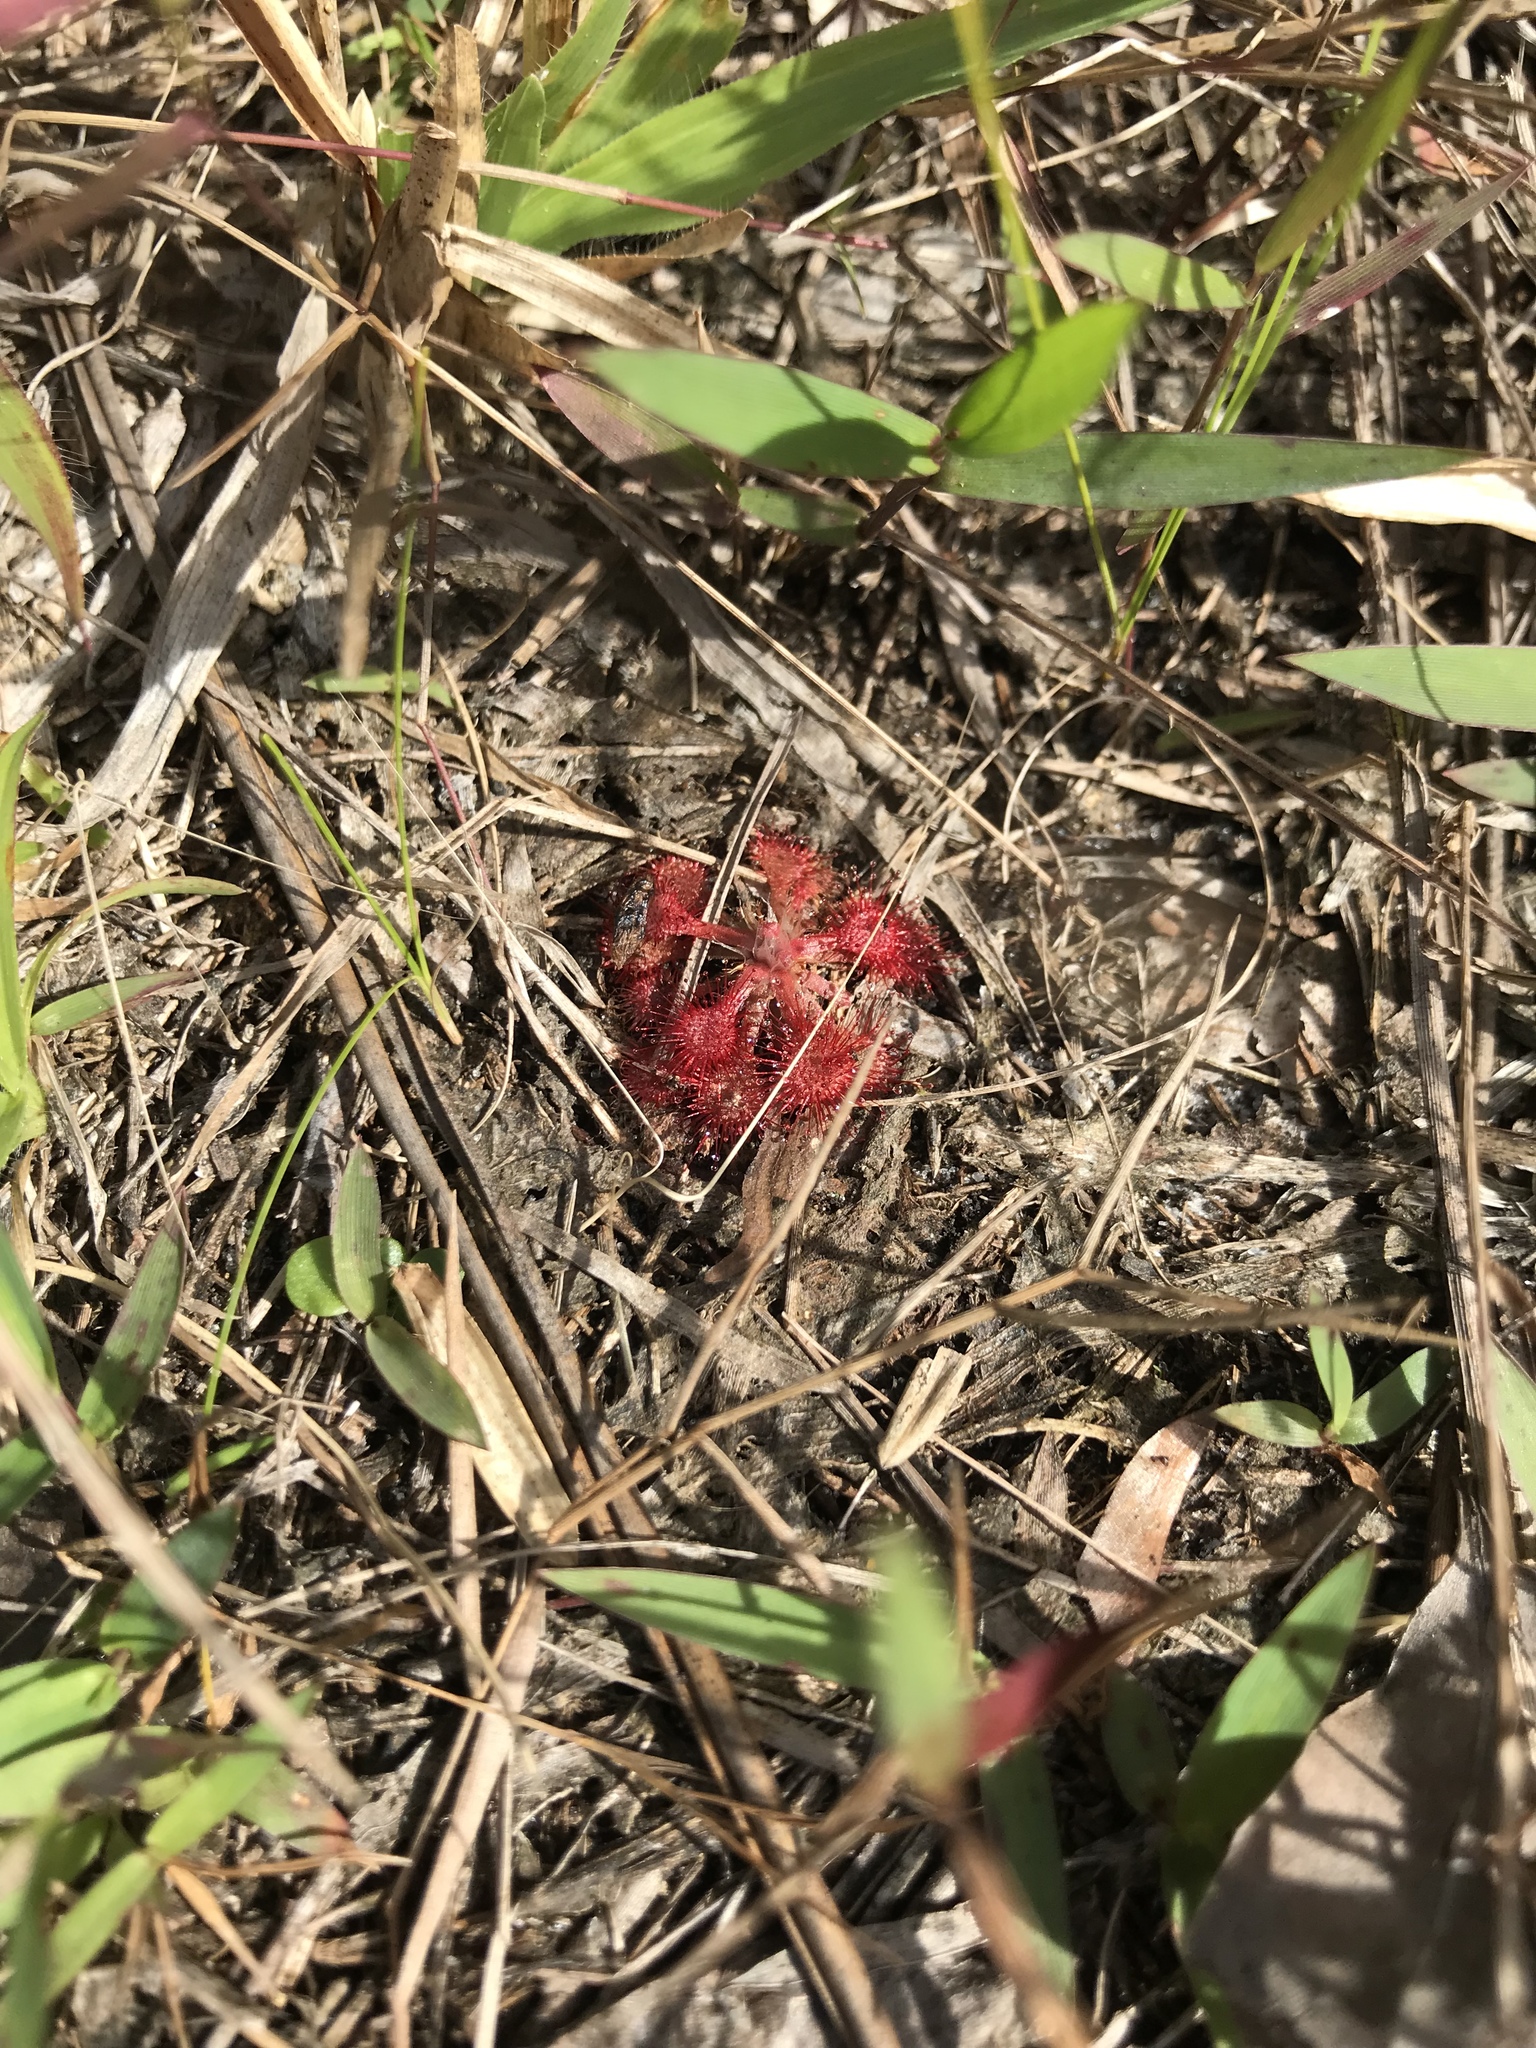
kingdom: Plantae
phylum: Tracheophyta
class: Magnoliopsida
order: Caryophyllales
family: Droseraceae
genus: Drosera
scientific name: Drosera capillaris
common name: Pink sundew
